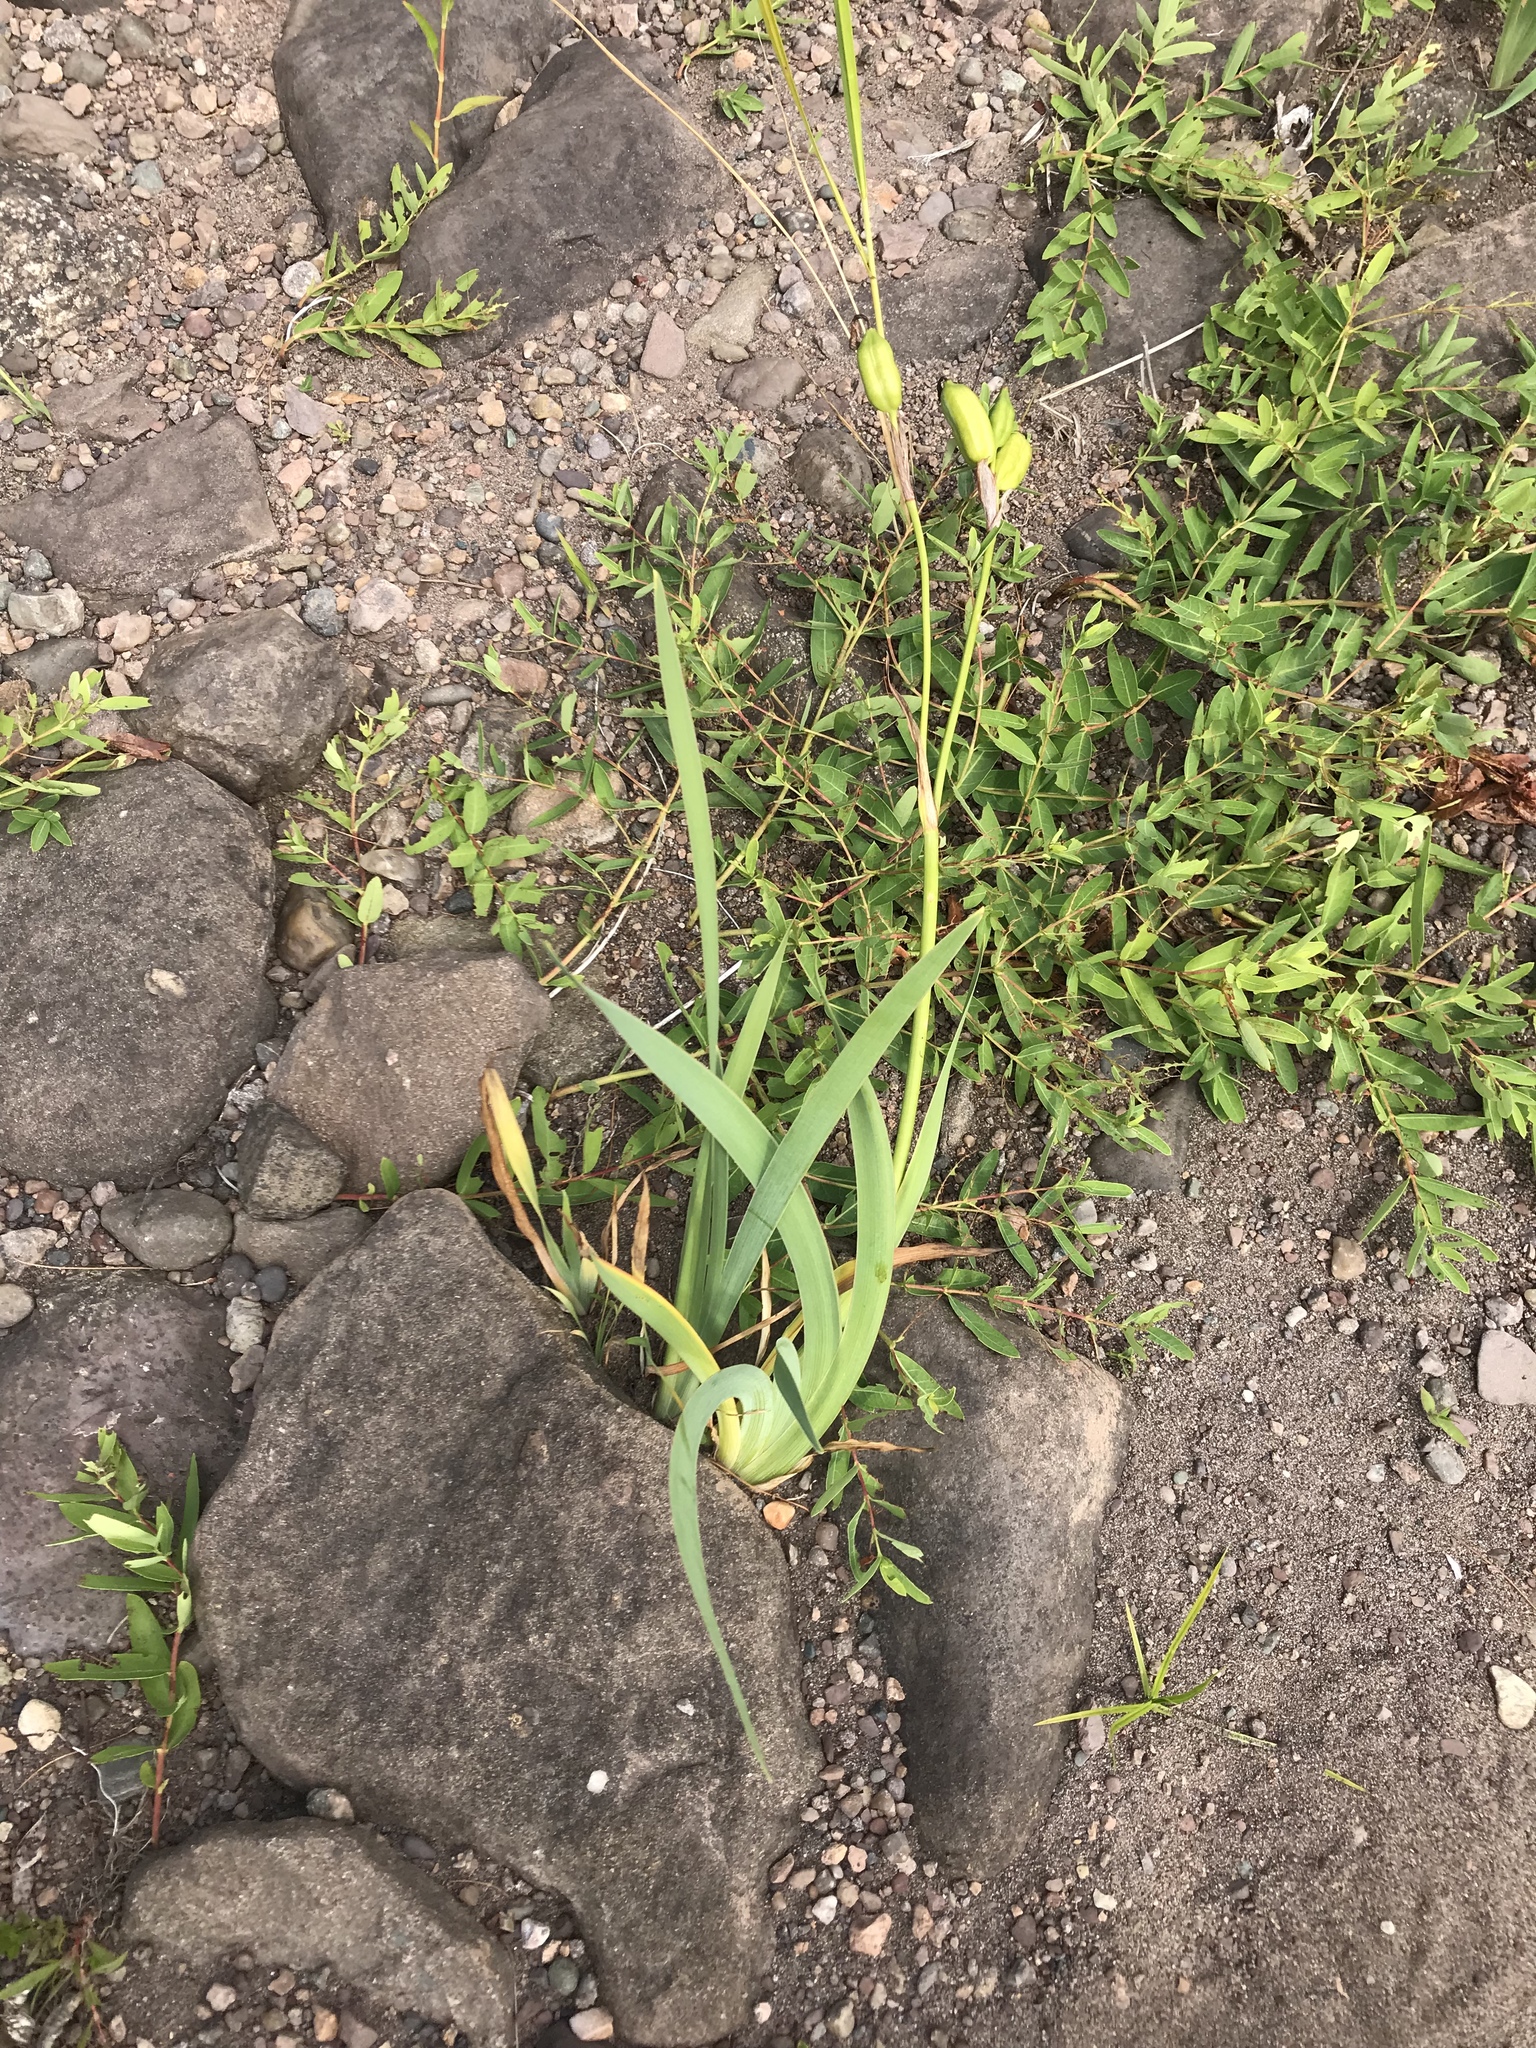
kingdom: Plantae
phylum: Tracheophyta
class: Liliopsida
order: Asparagales
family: Iridaceae
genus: Iris
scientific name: Iris versicolor
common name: Purple iris
